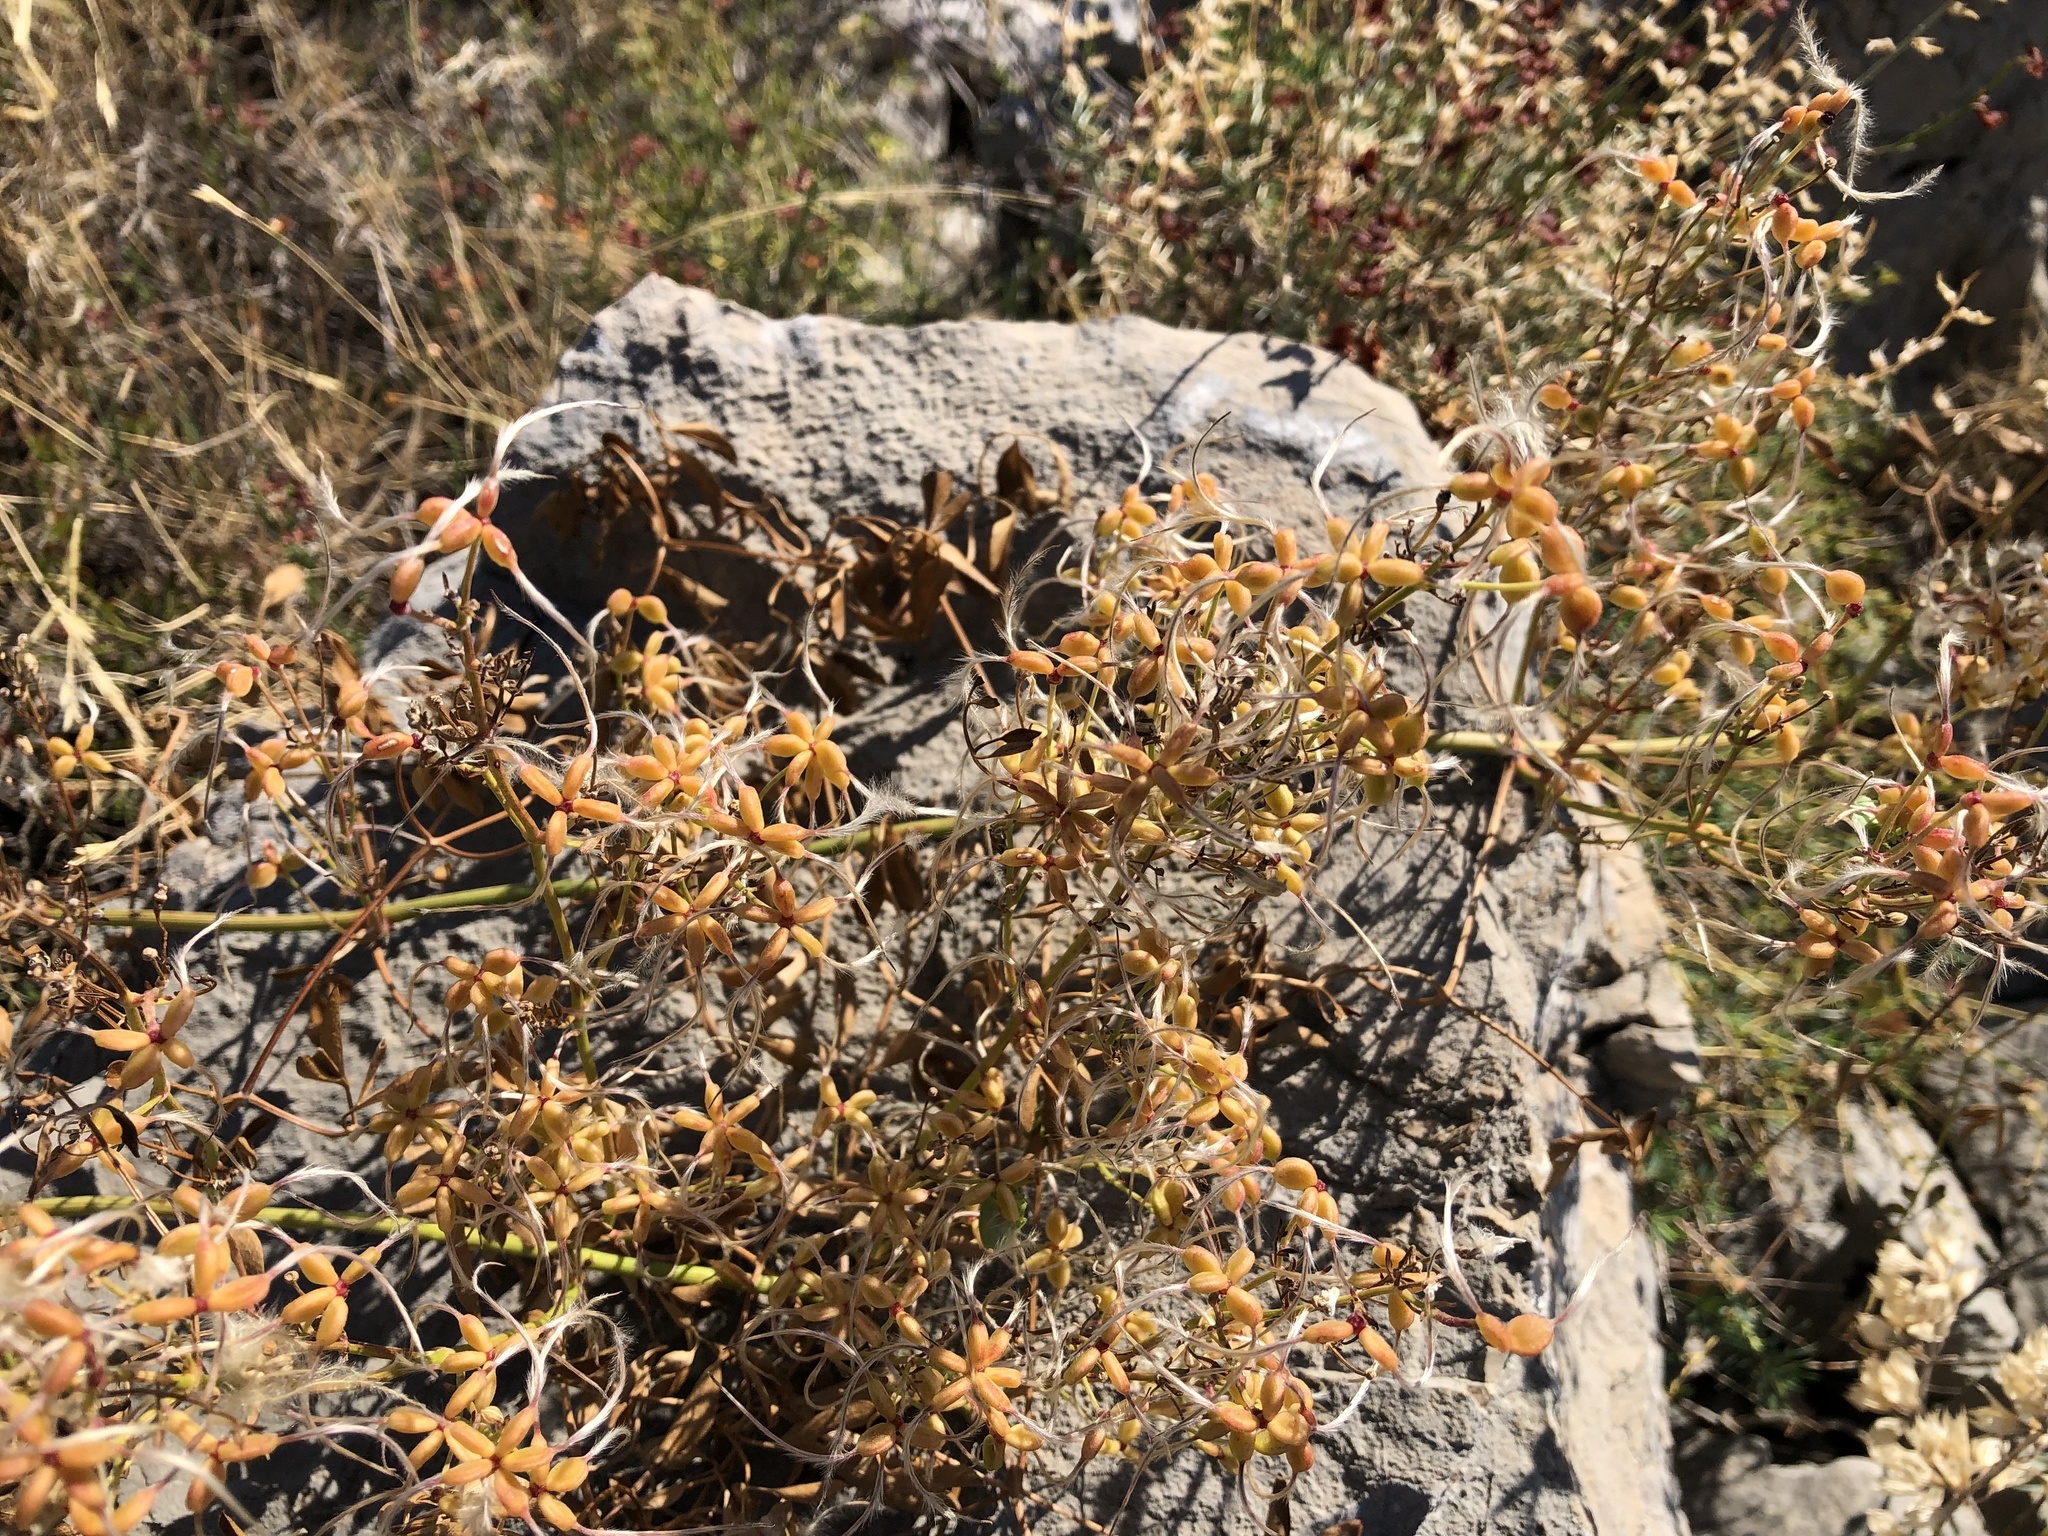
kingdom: Plantae
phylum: Tracheophyta
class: Magnoliopsida
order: Ranunculales
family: Ranunculaceae
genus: Clematis
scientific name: Clematis flammula
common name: Virgin's-bower
